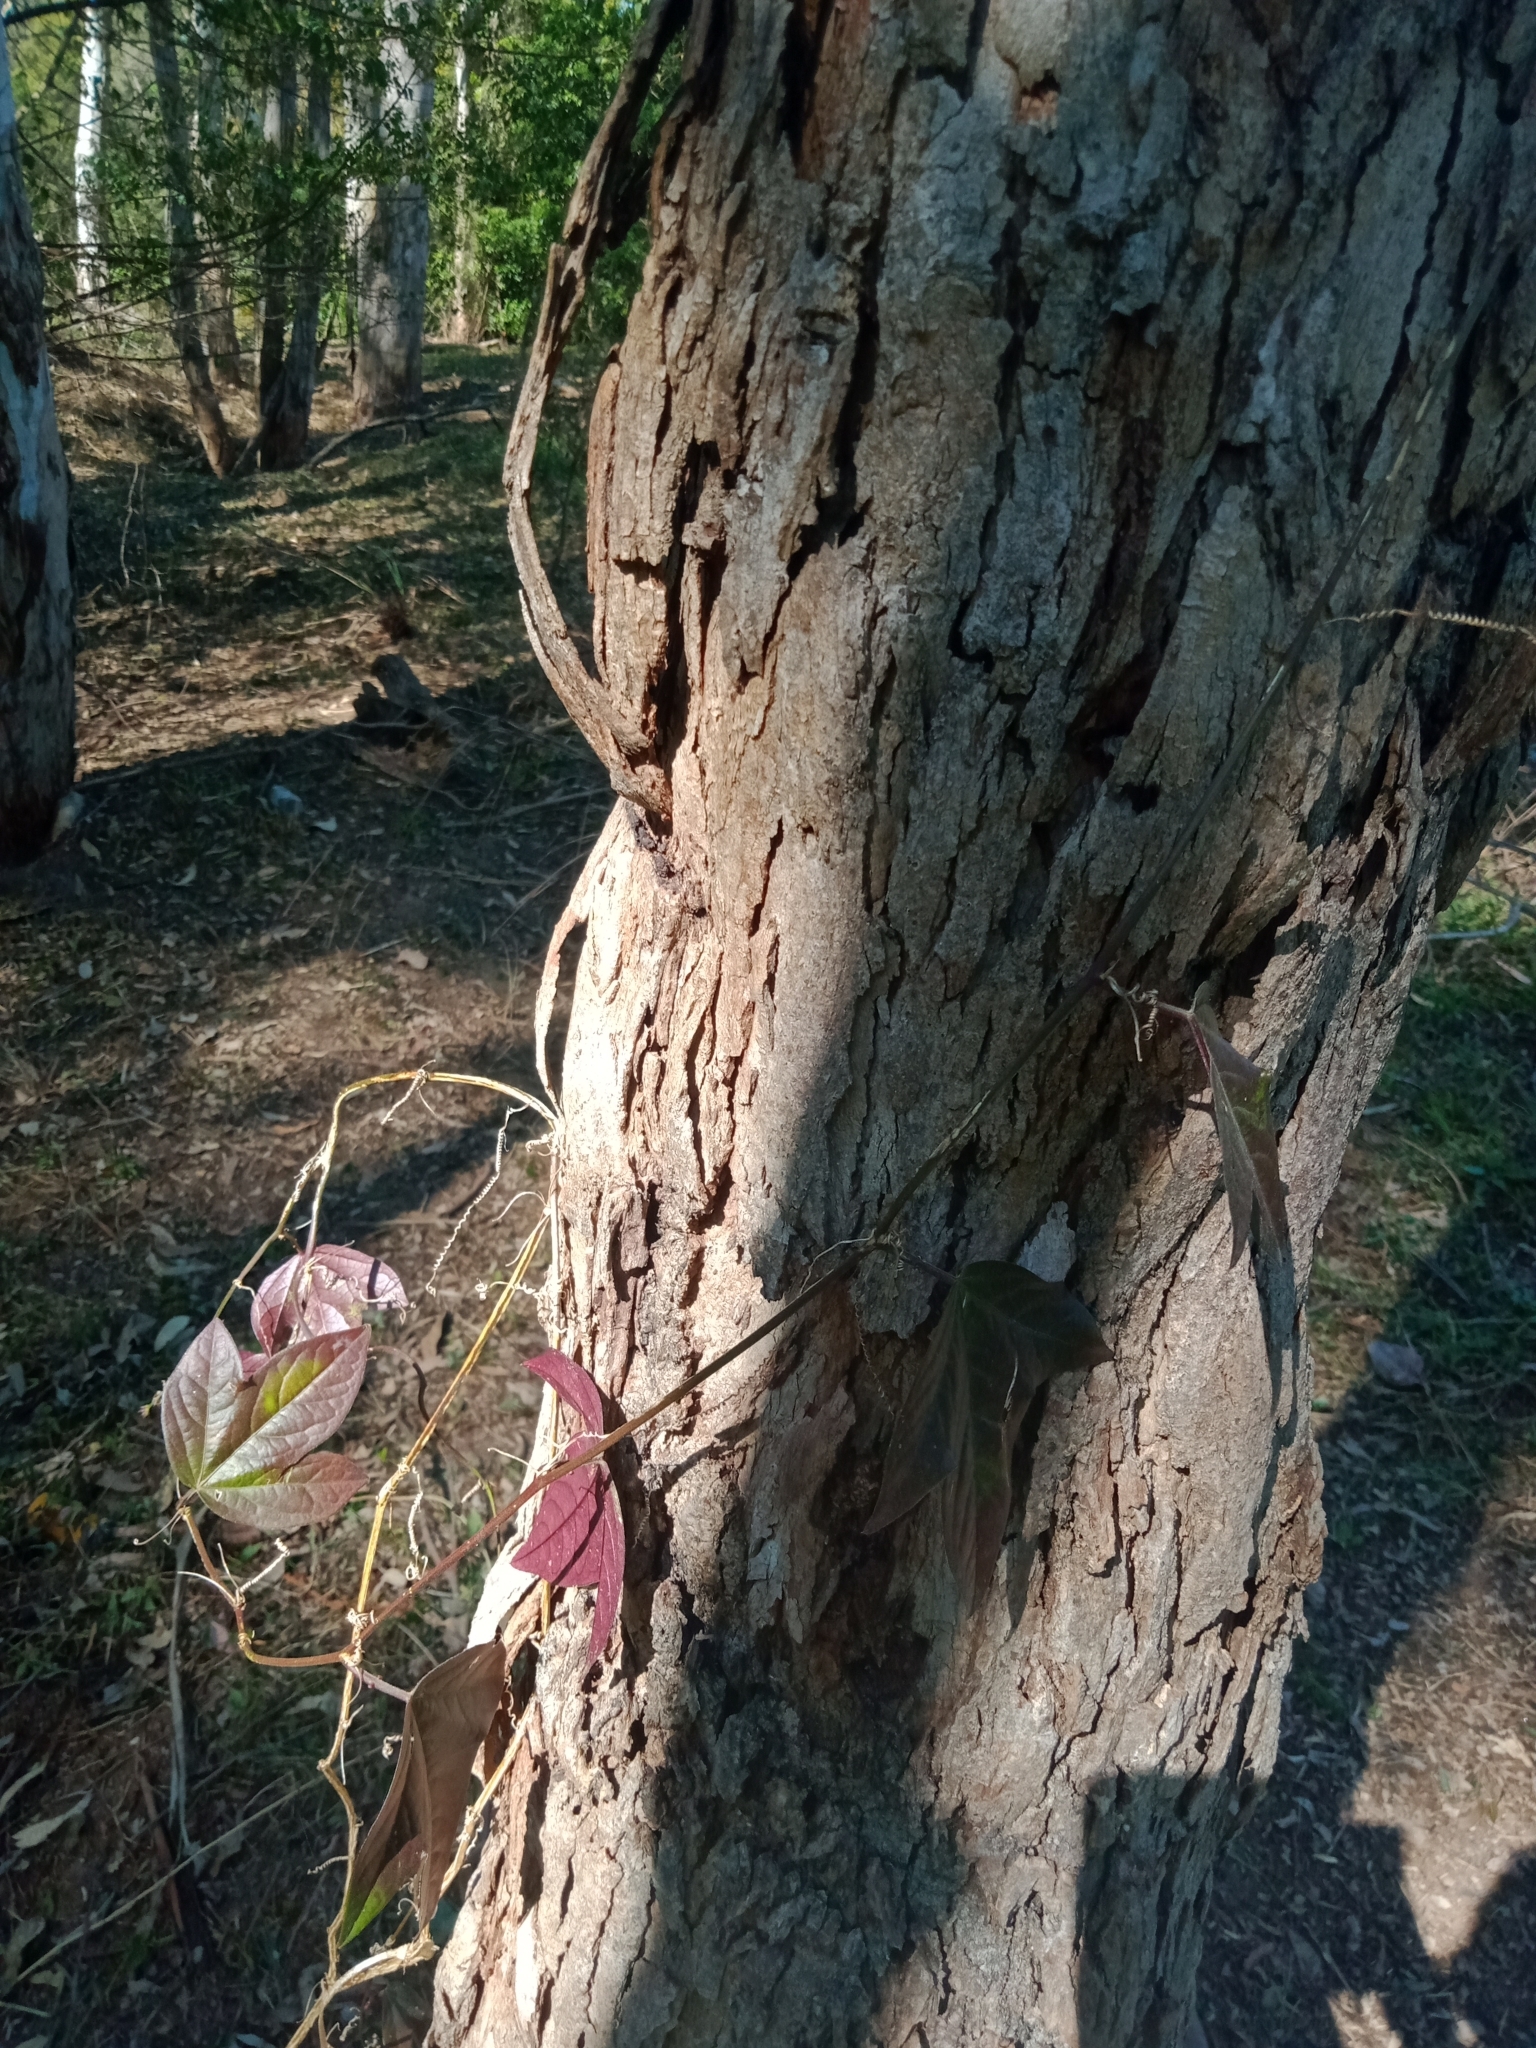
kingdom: Plantae
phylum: Tracheophyta
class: Magnoliopsida
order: Malpighiales
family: Passifloraceae
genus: Passiflora
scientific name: Passiflora suberosa
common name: Wild passionfruit
